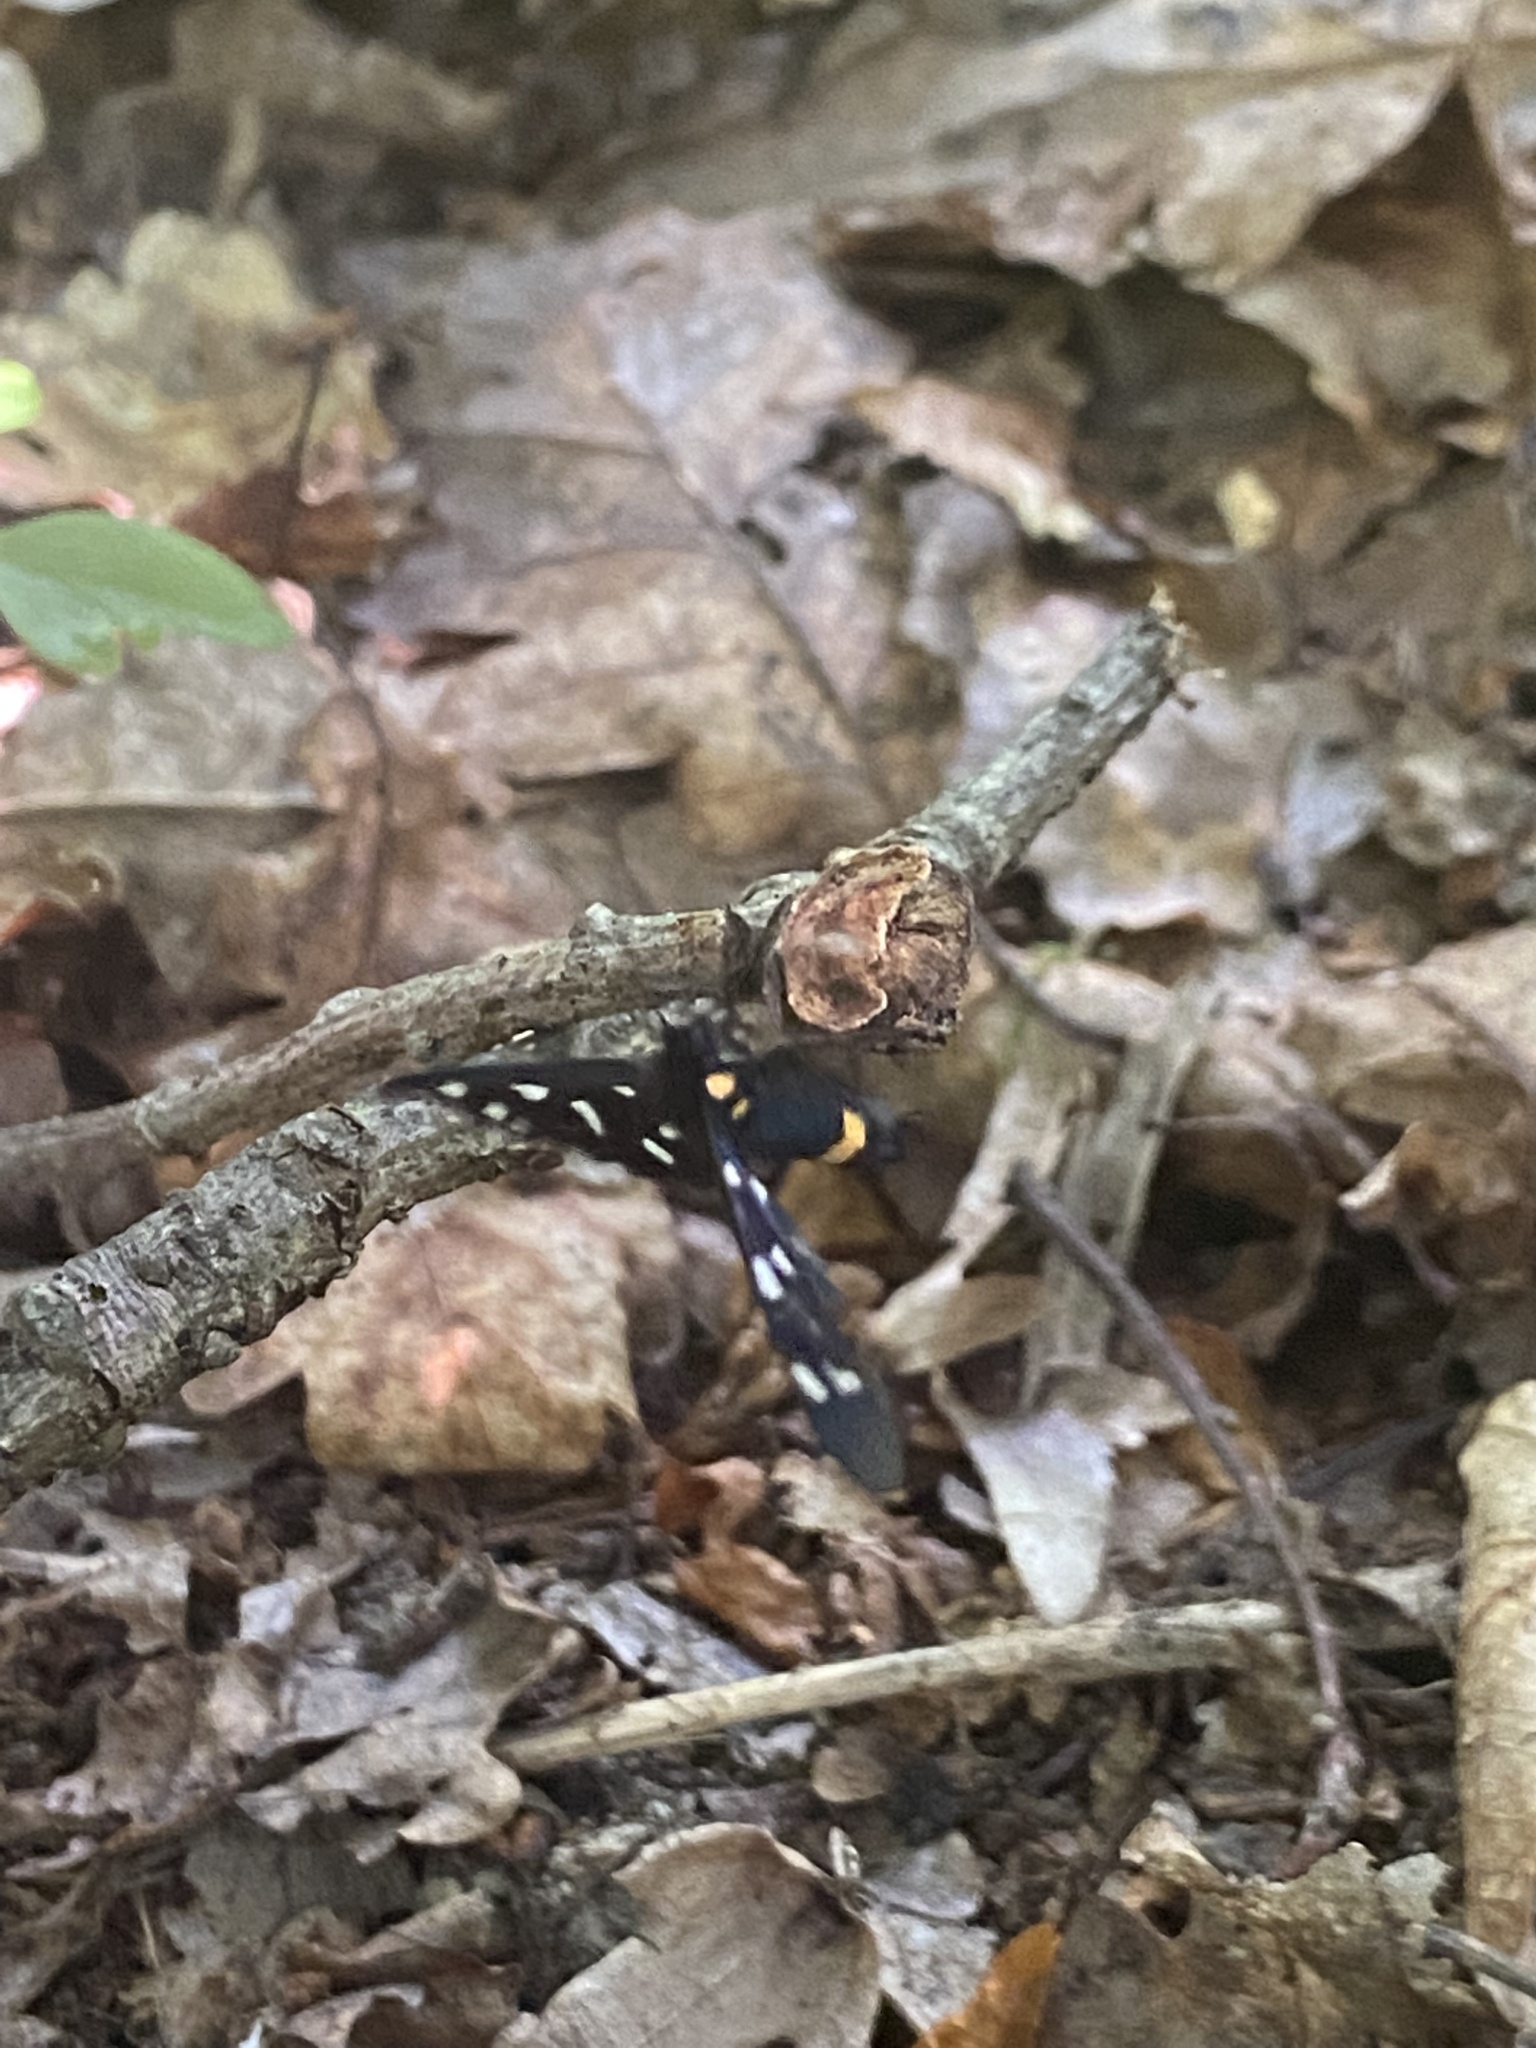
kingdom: Animalia
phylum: Arthropoda
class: Insecta
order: Lepidoptera
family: Erebidae
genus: Amata
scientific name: Amata phegea
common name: Nine-spotted
